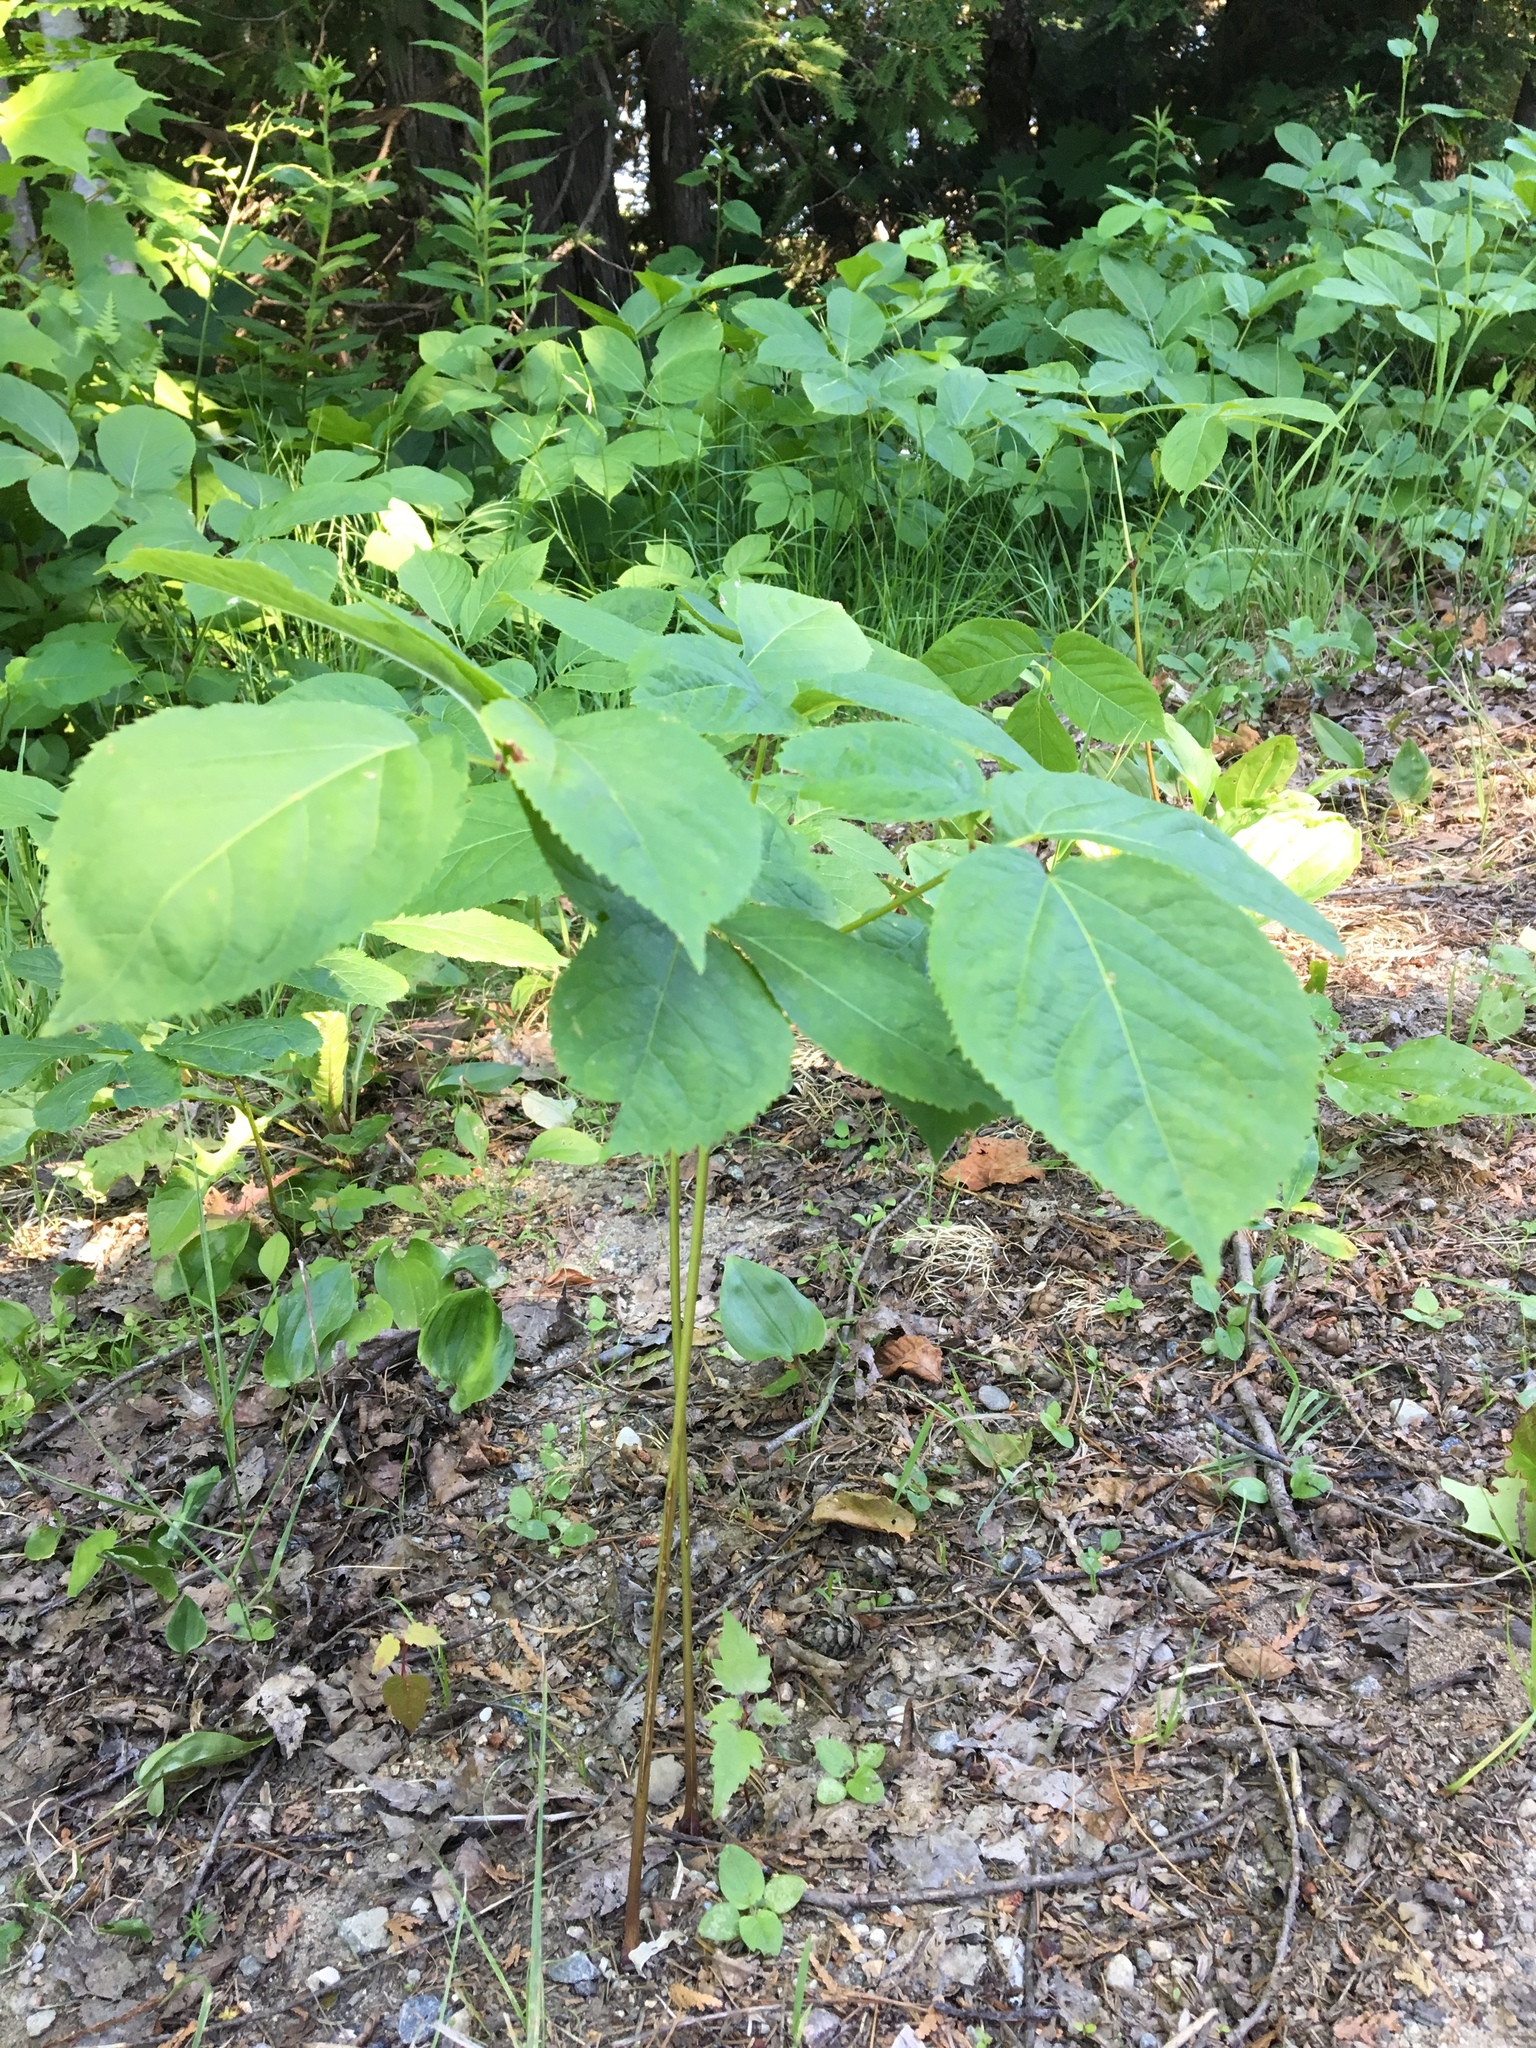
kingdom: Plantae
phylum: Tracheophyta
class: Magnoliopsida
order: Apiales
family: Araliaceae
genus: Aralia
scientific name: Aralia nudicaulis
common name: Wild sarsaparilla
